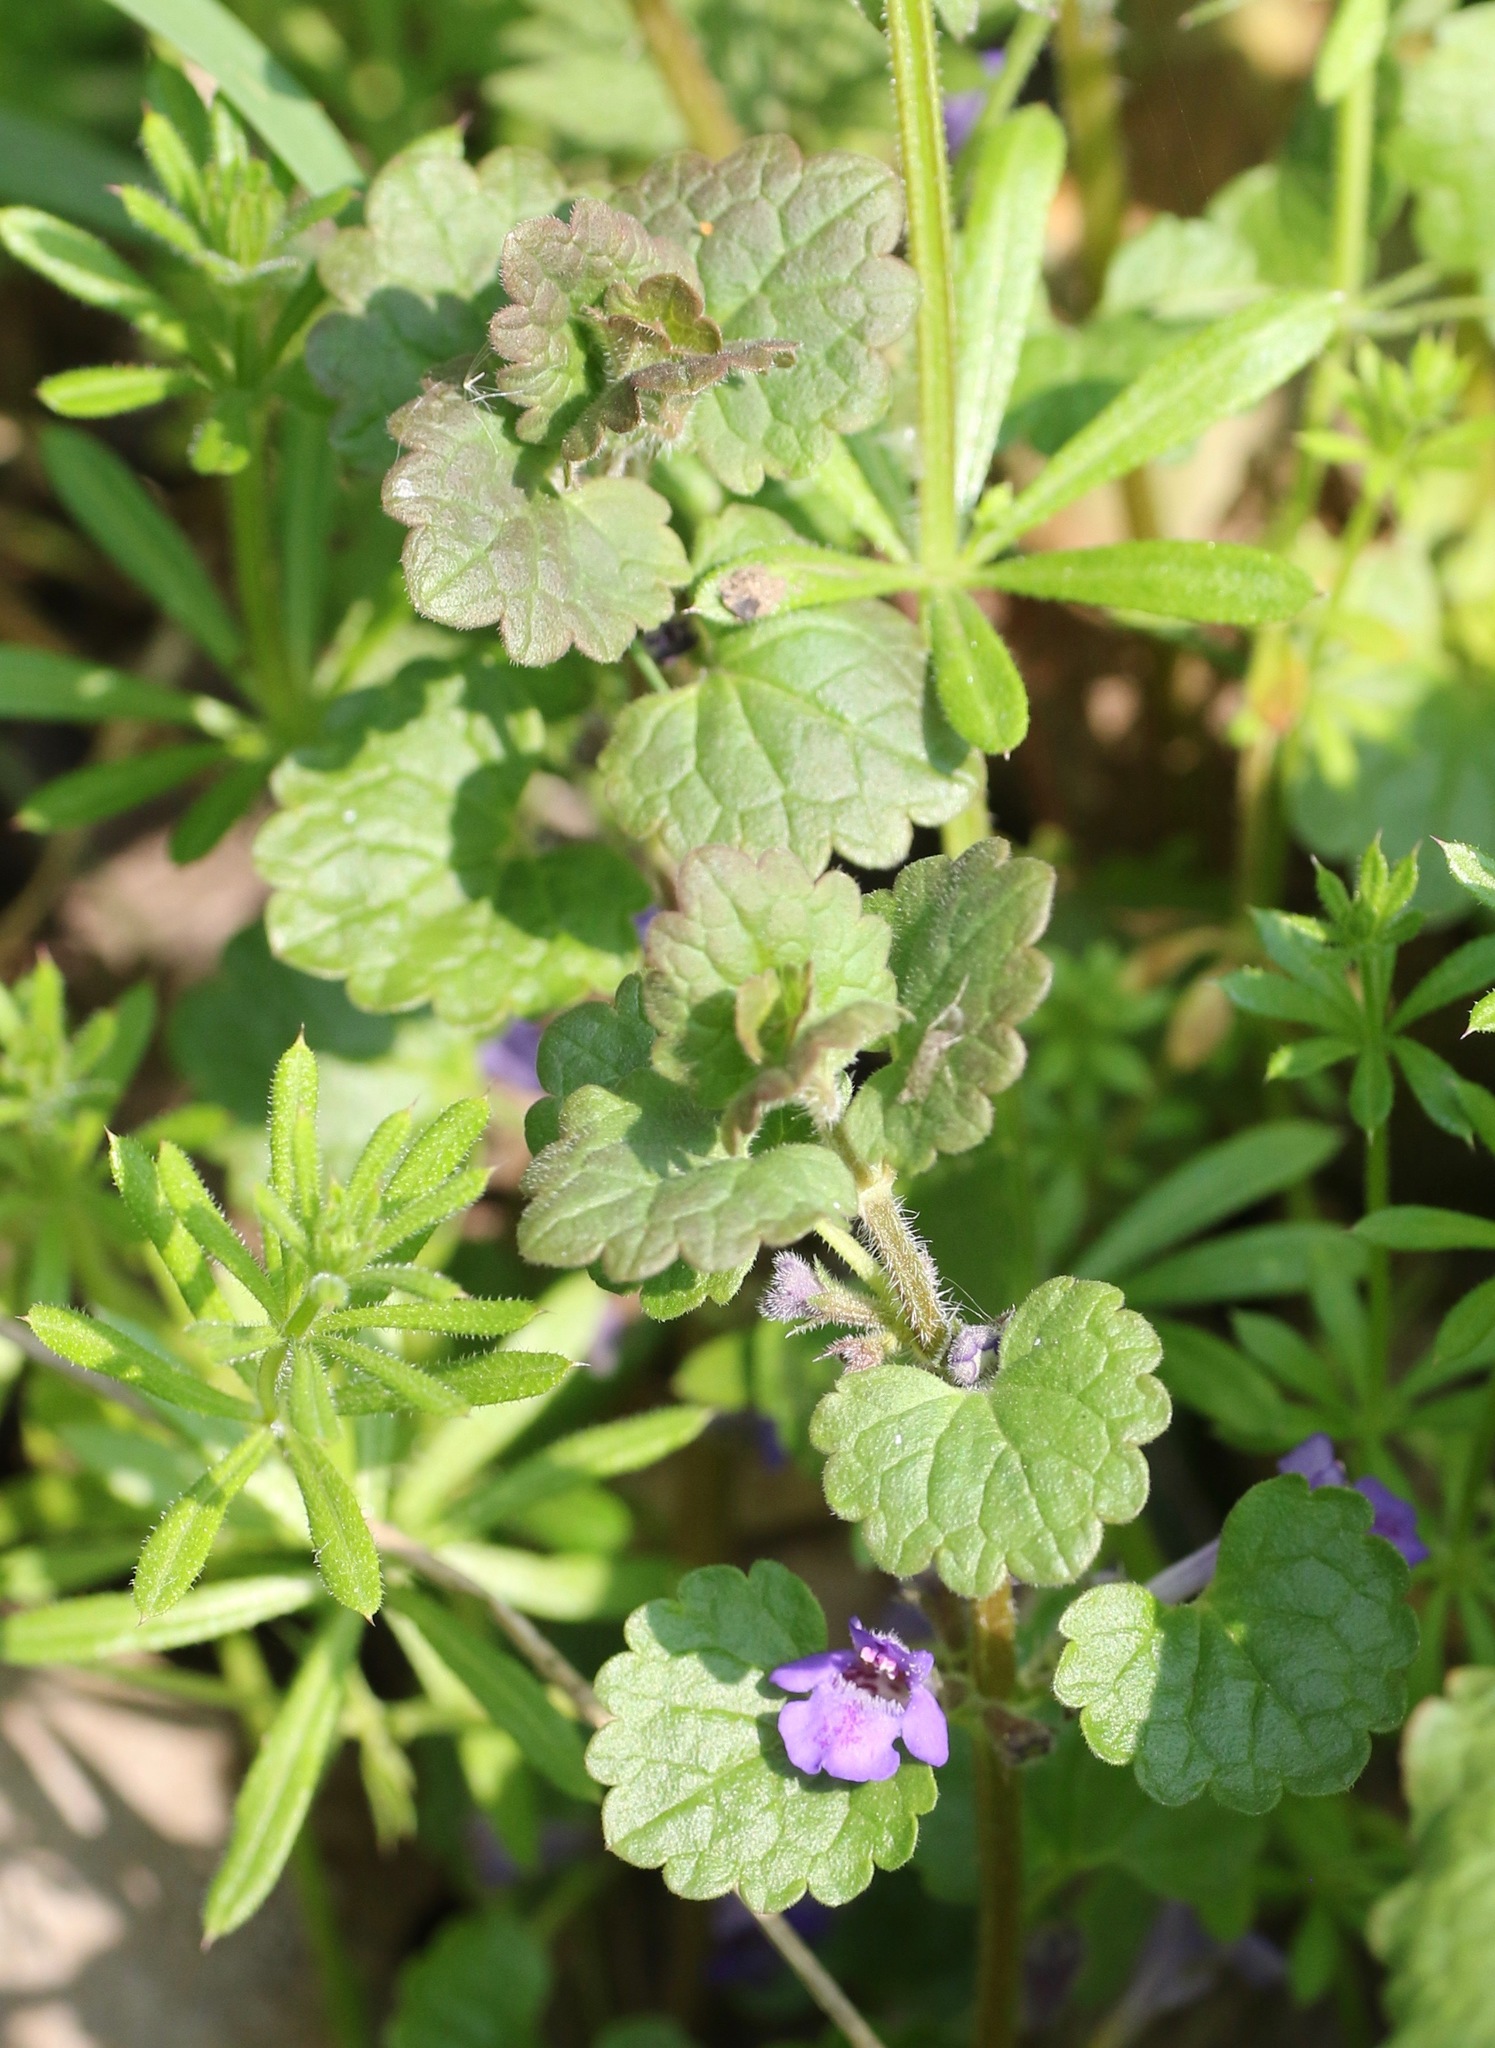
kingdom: Plantae
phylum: Tracheophyta
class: Magnoliopsida
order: Lamiales
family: Lamiaceae
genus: Glechoma
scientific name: Glechoma hederacea
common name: Ground ivy
